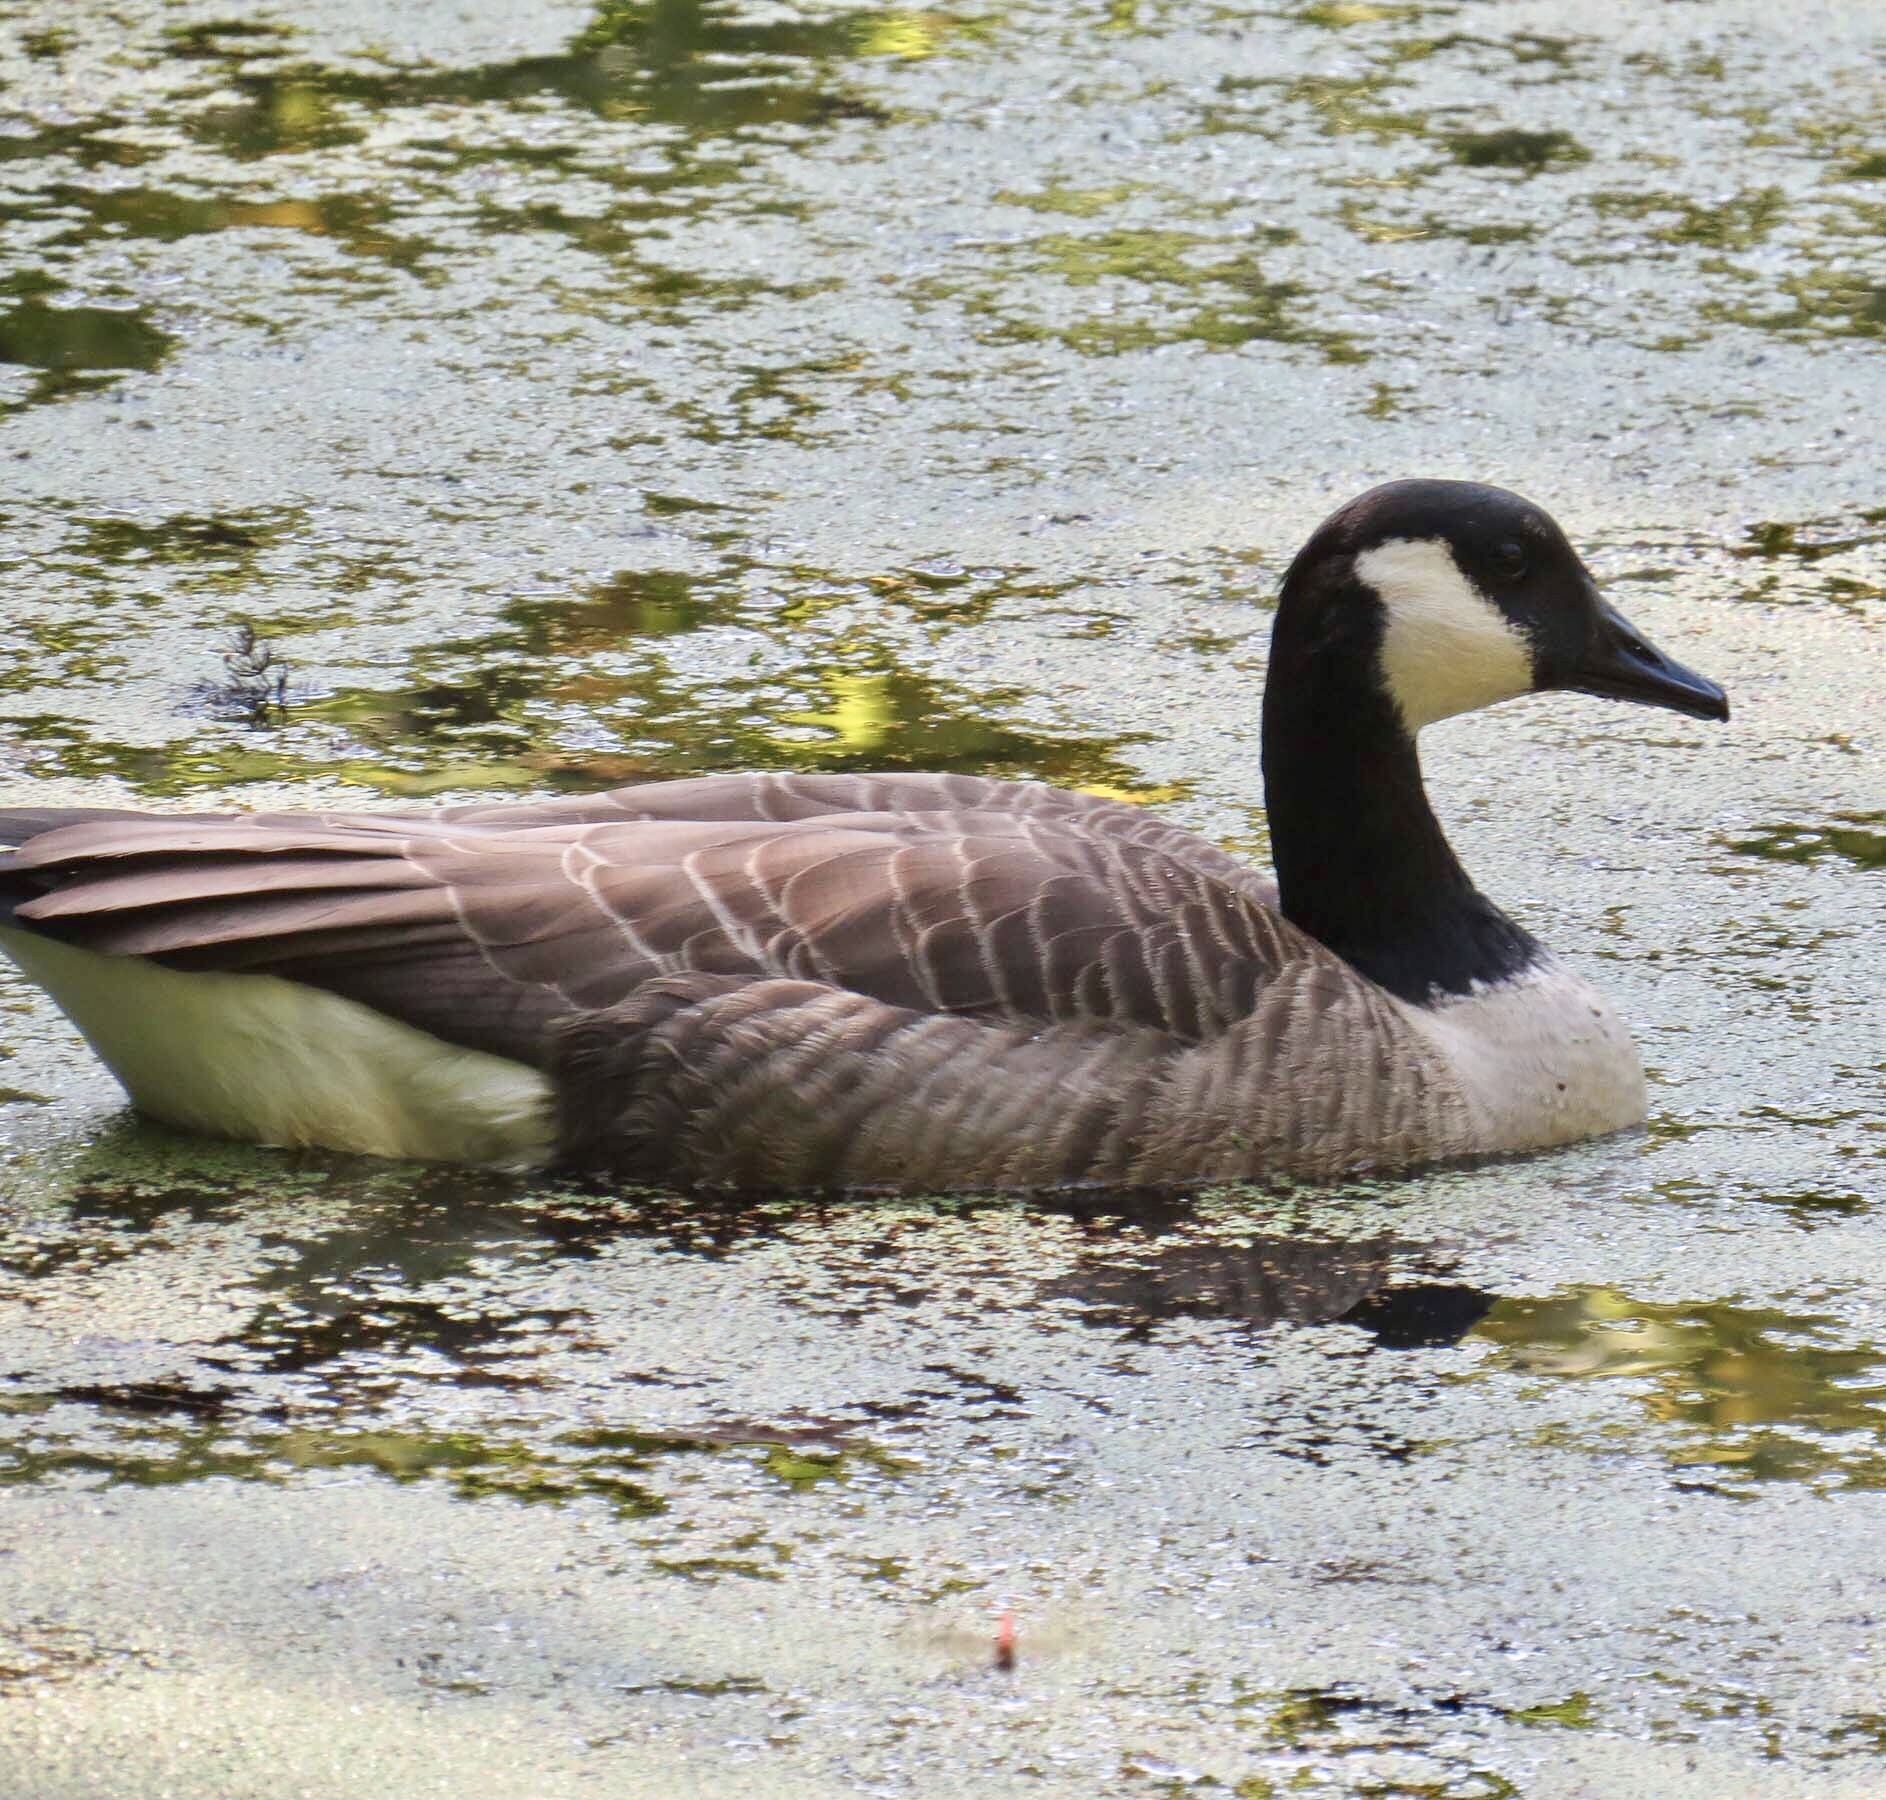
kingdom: Animalia
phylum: Chordata
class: Aves
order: Anseriformes
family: Anatidae
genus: Branta
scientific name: Branta canadensis
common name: Canada goose
